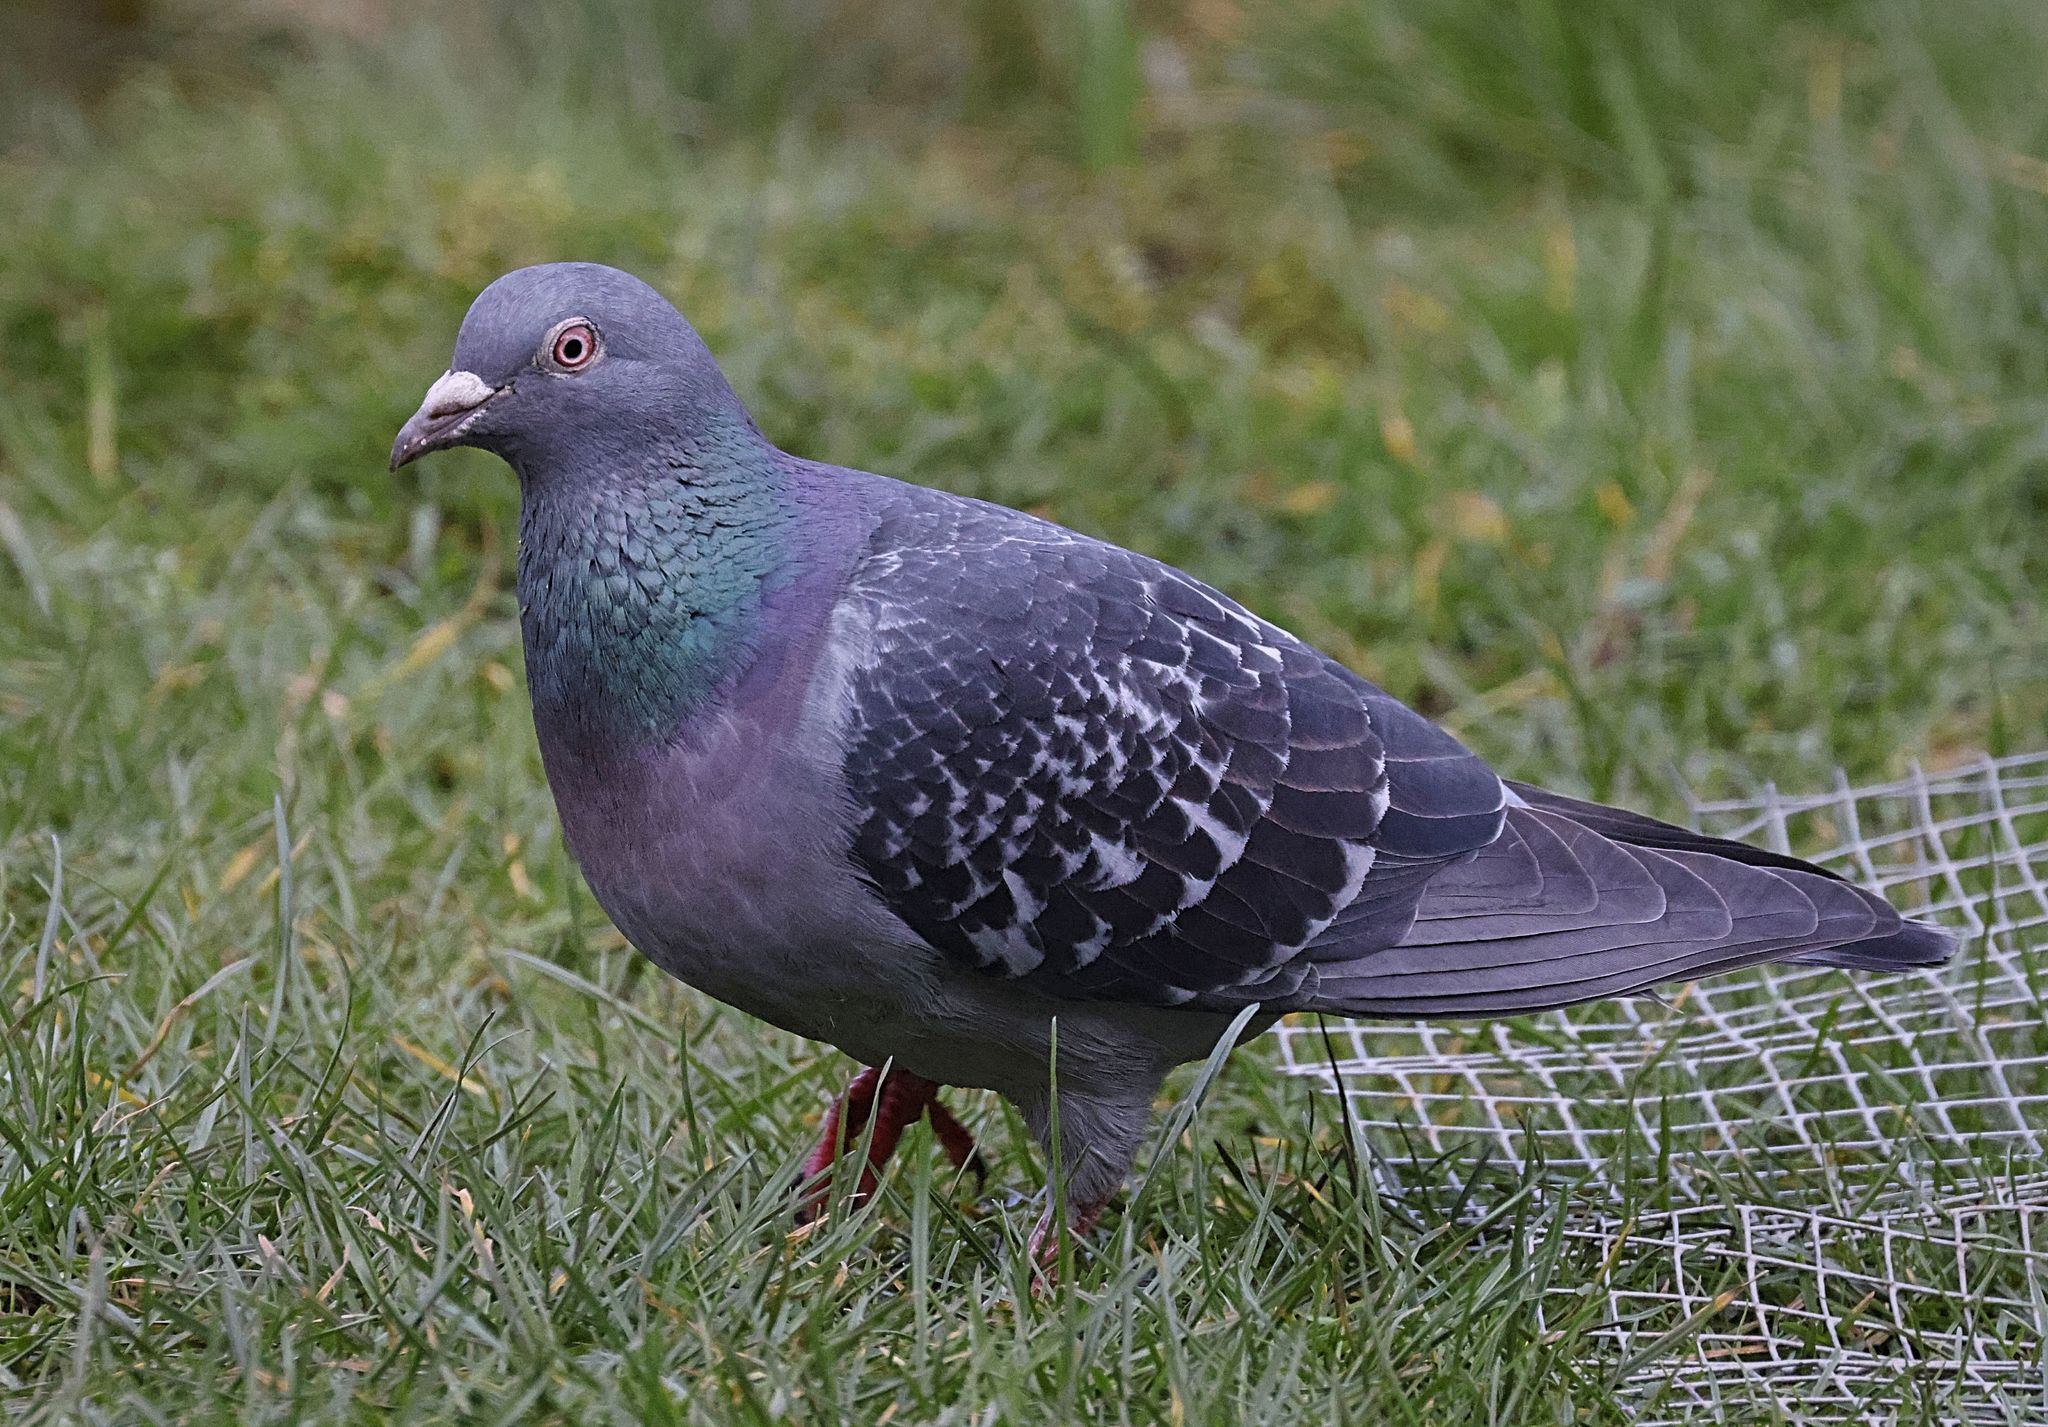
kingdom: Animalia
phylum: Chordata
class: Aves
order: Columbiformes
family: Columbidae
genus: Columba
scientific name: Columba livia
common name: Rock pigeon
